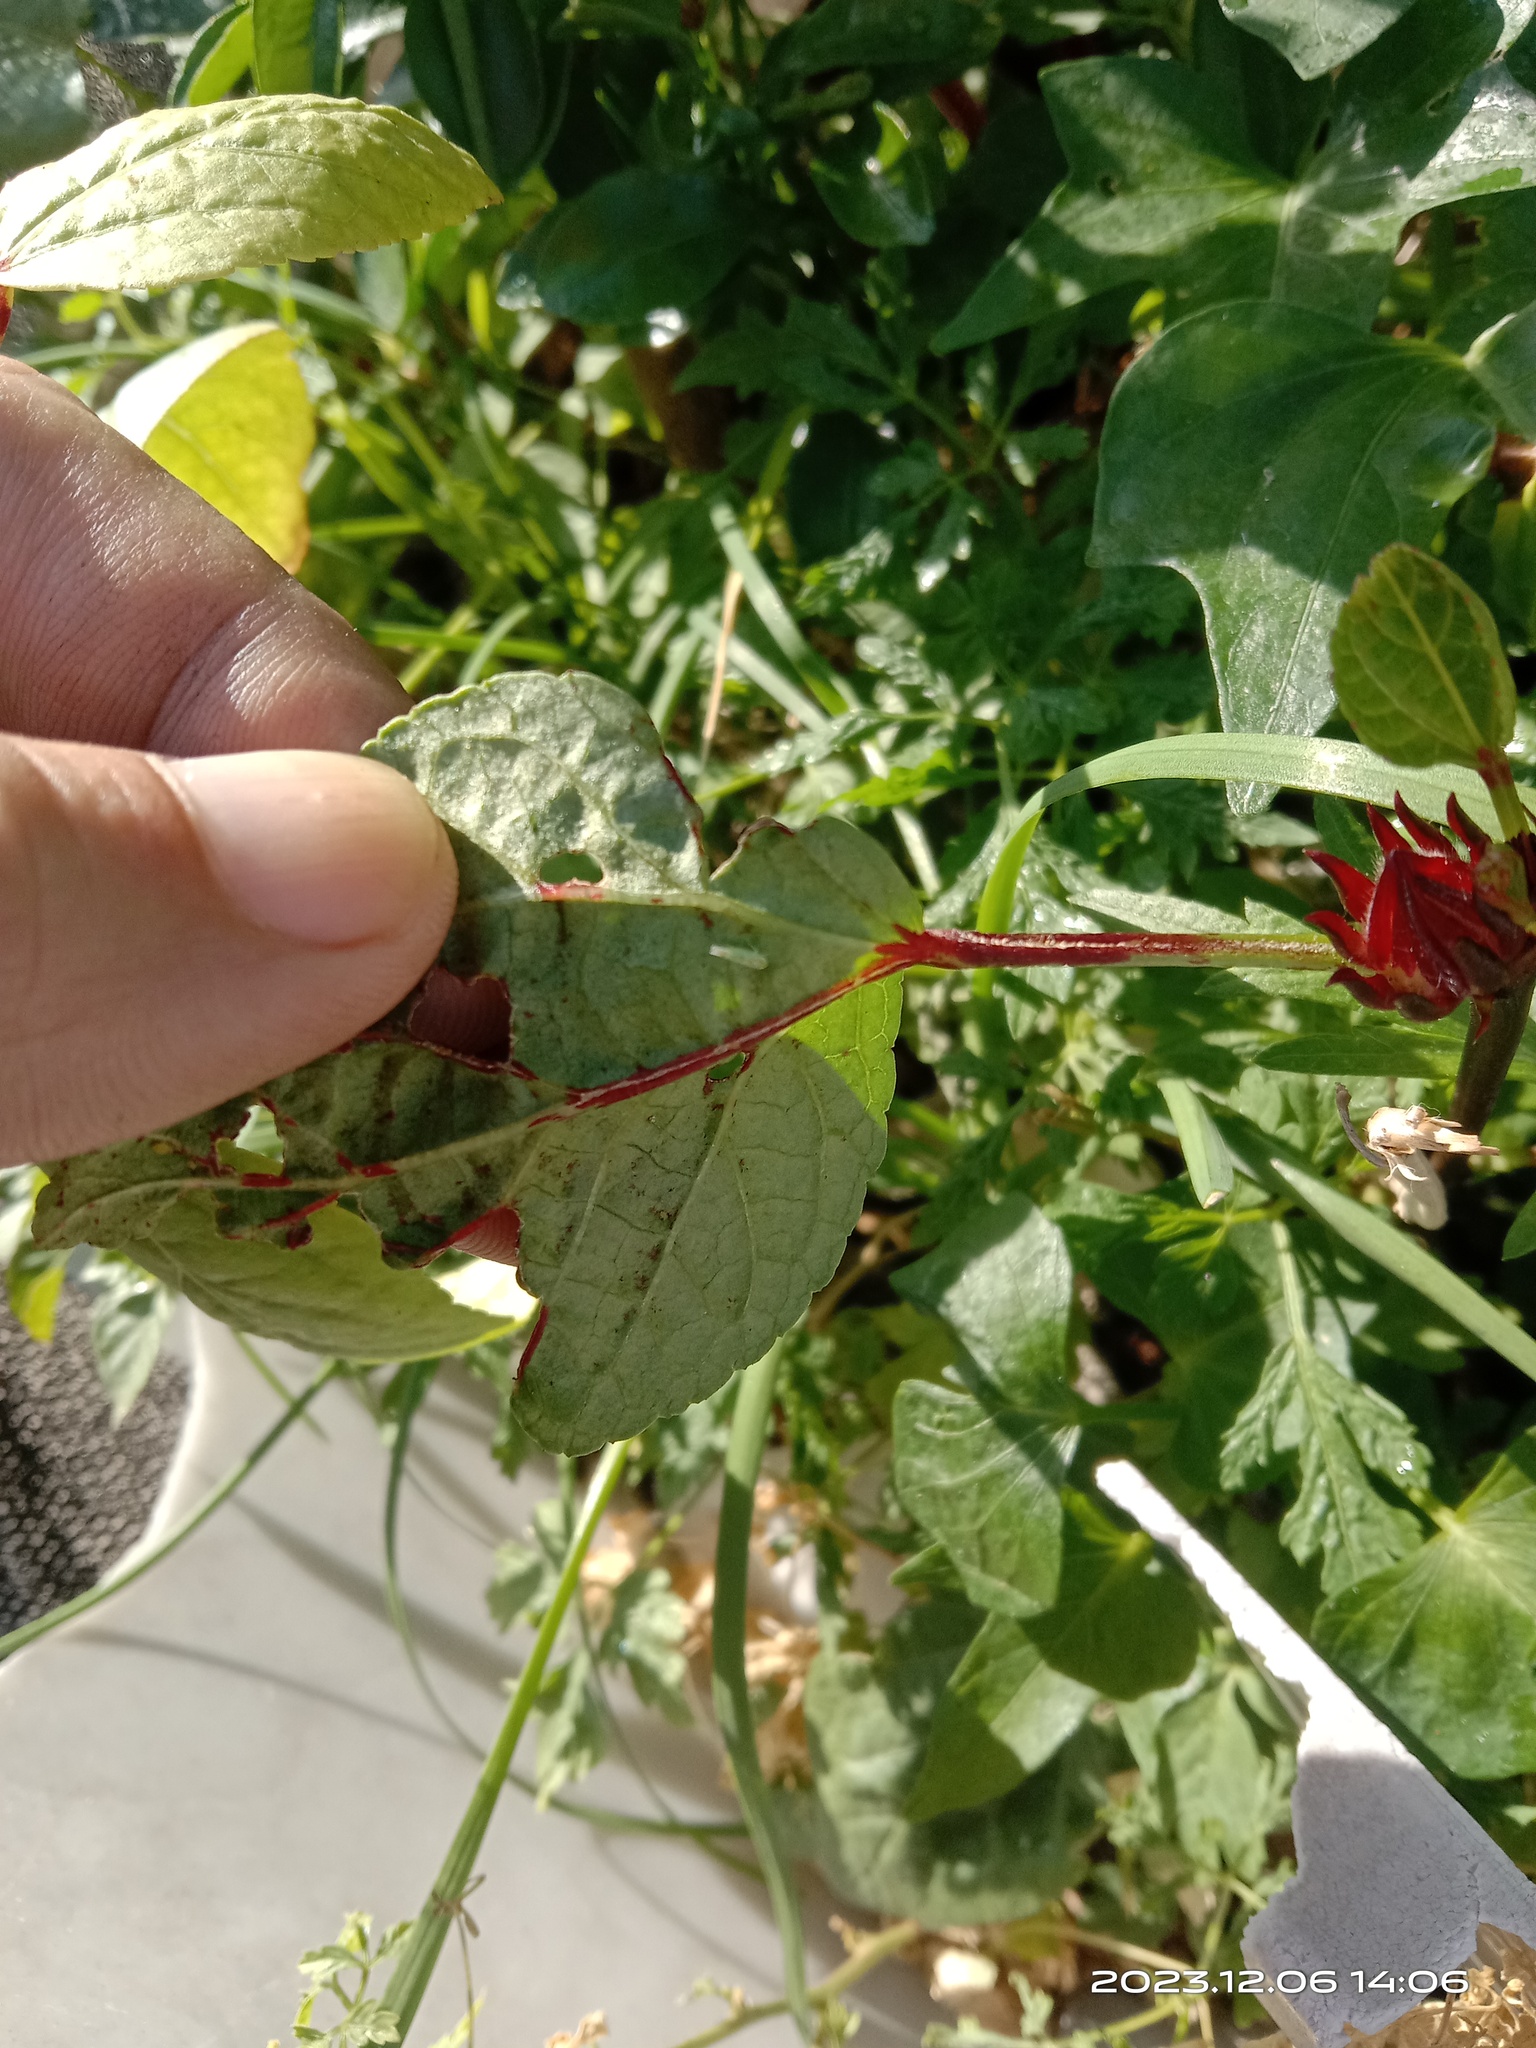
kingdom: Animalia
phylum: Arthropoda
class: Insecta
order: Hemiptera
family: Cicadellidae
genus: Amrasca
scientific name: Amrasca biguttula
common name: Indian cotton jassid
